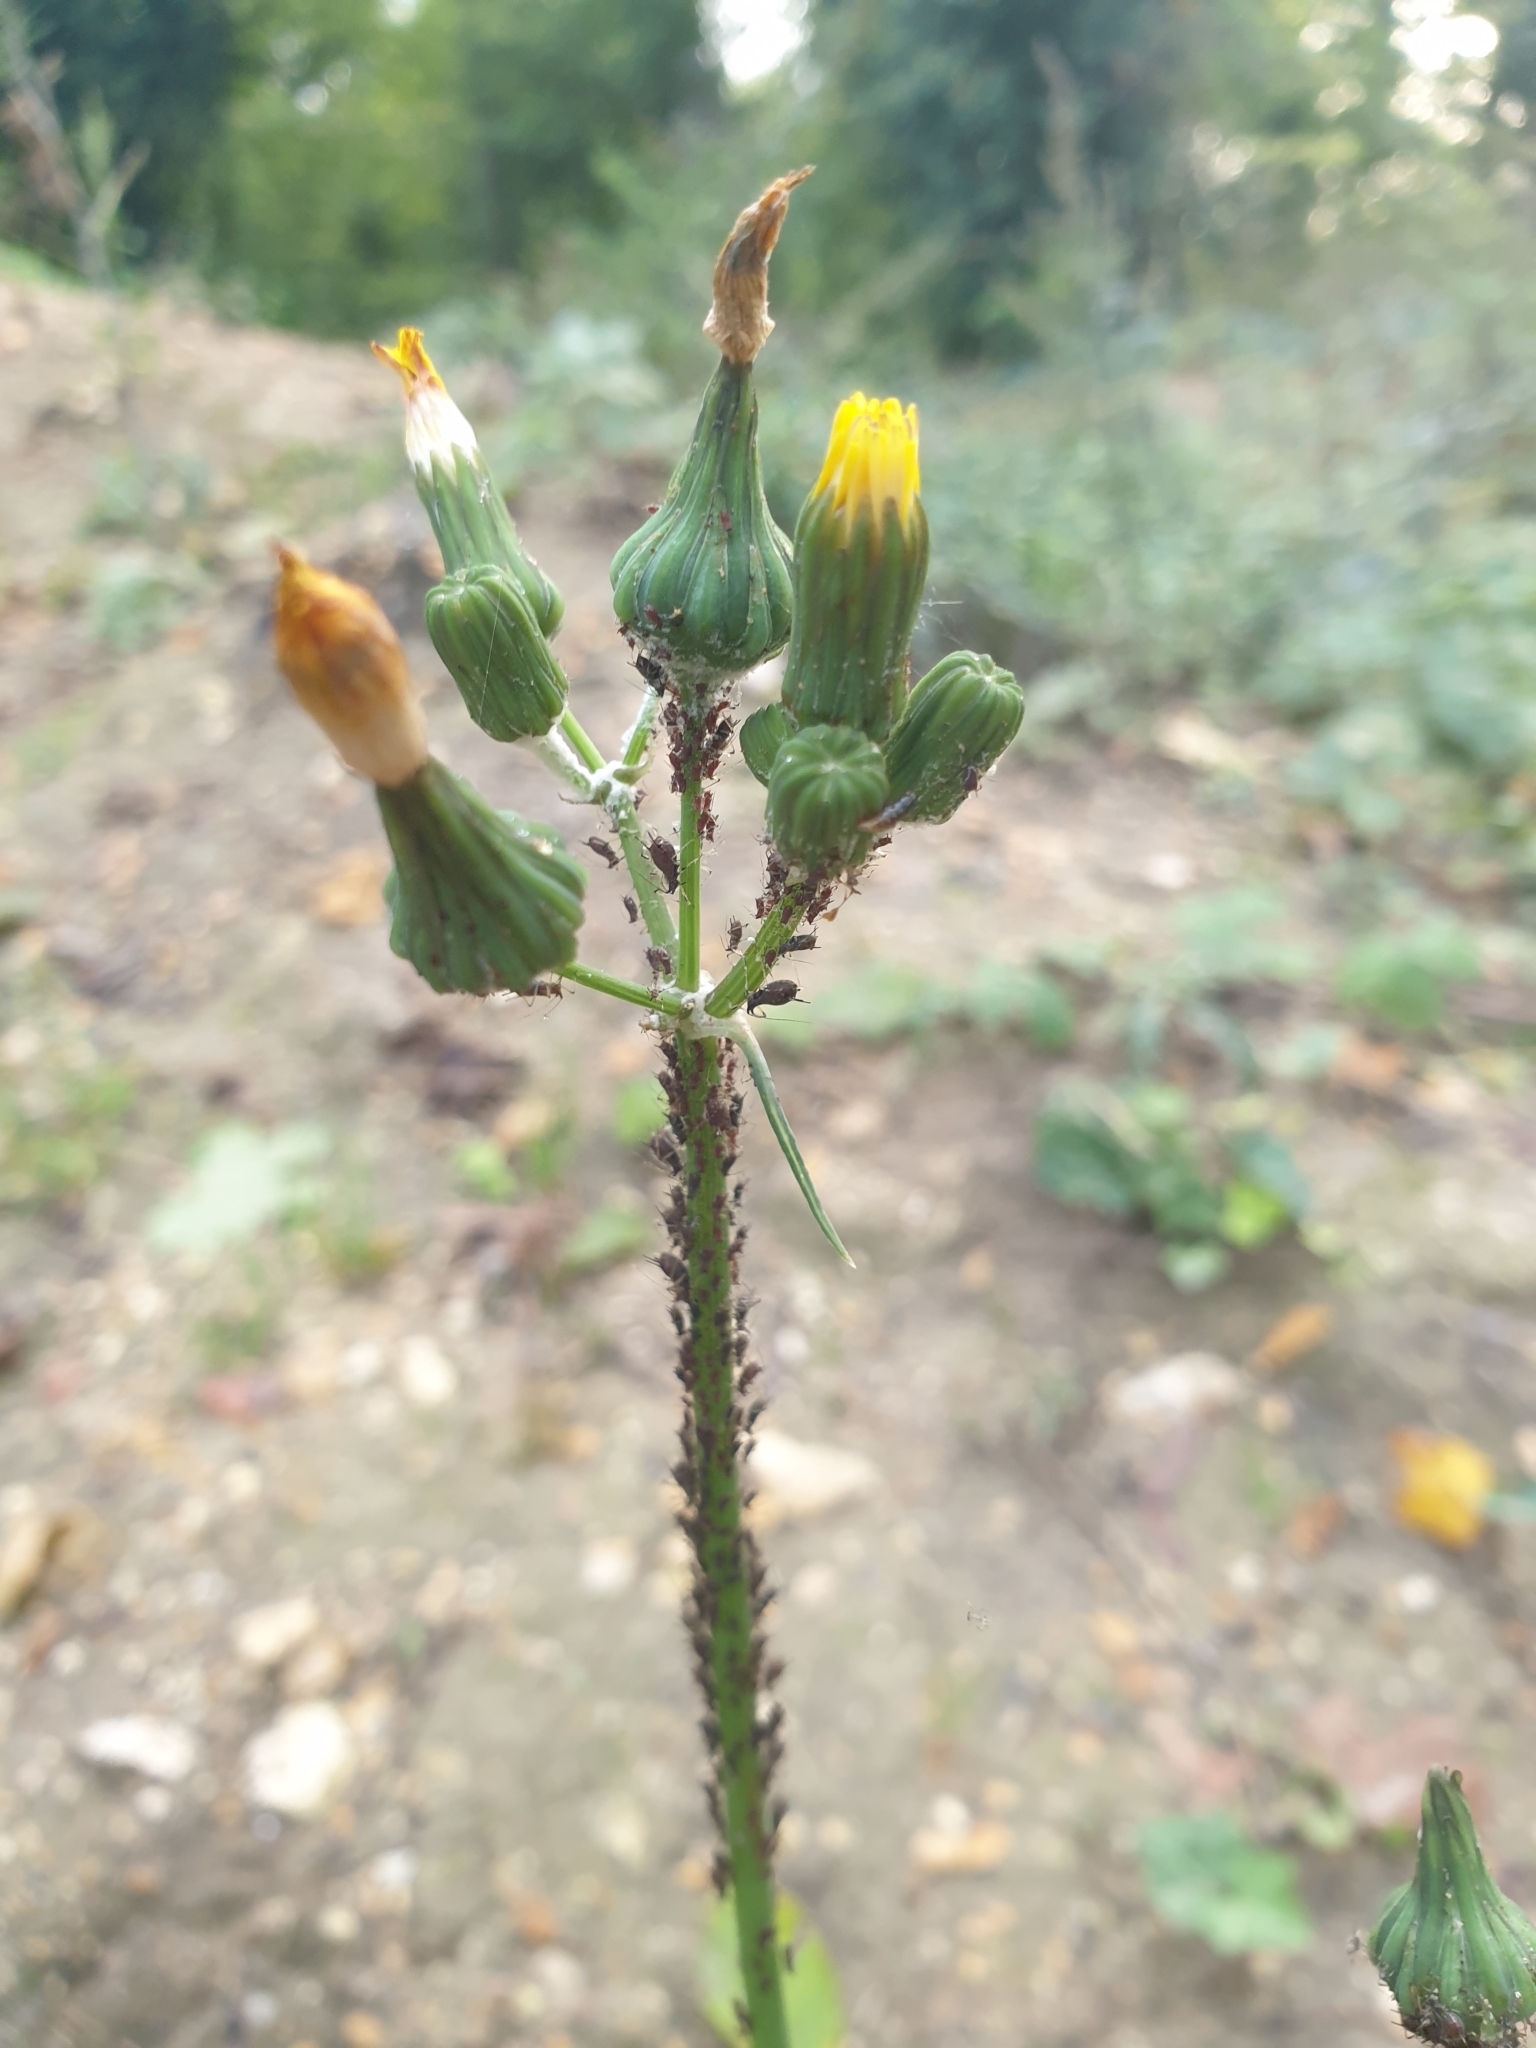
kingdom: Plantae
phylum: Tracheophyta
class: Magnoliopsida
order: Asterales
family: Asteraceae
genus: Sonchus
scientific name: Sonchus oleraceus
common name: Common sowthistle
